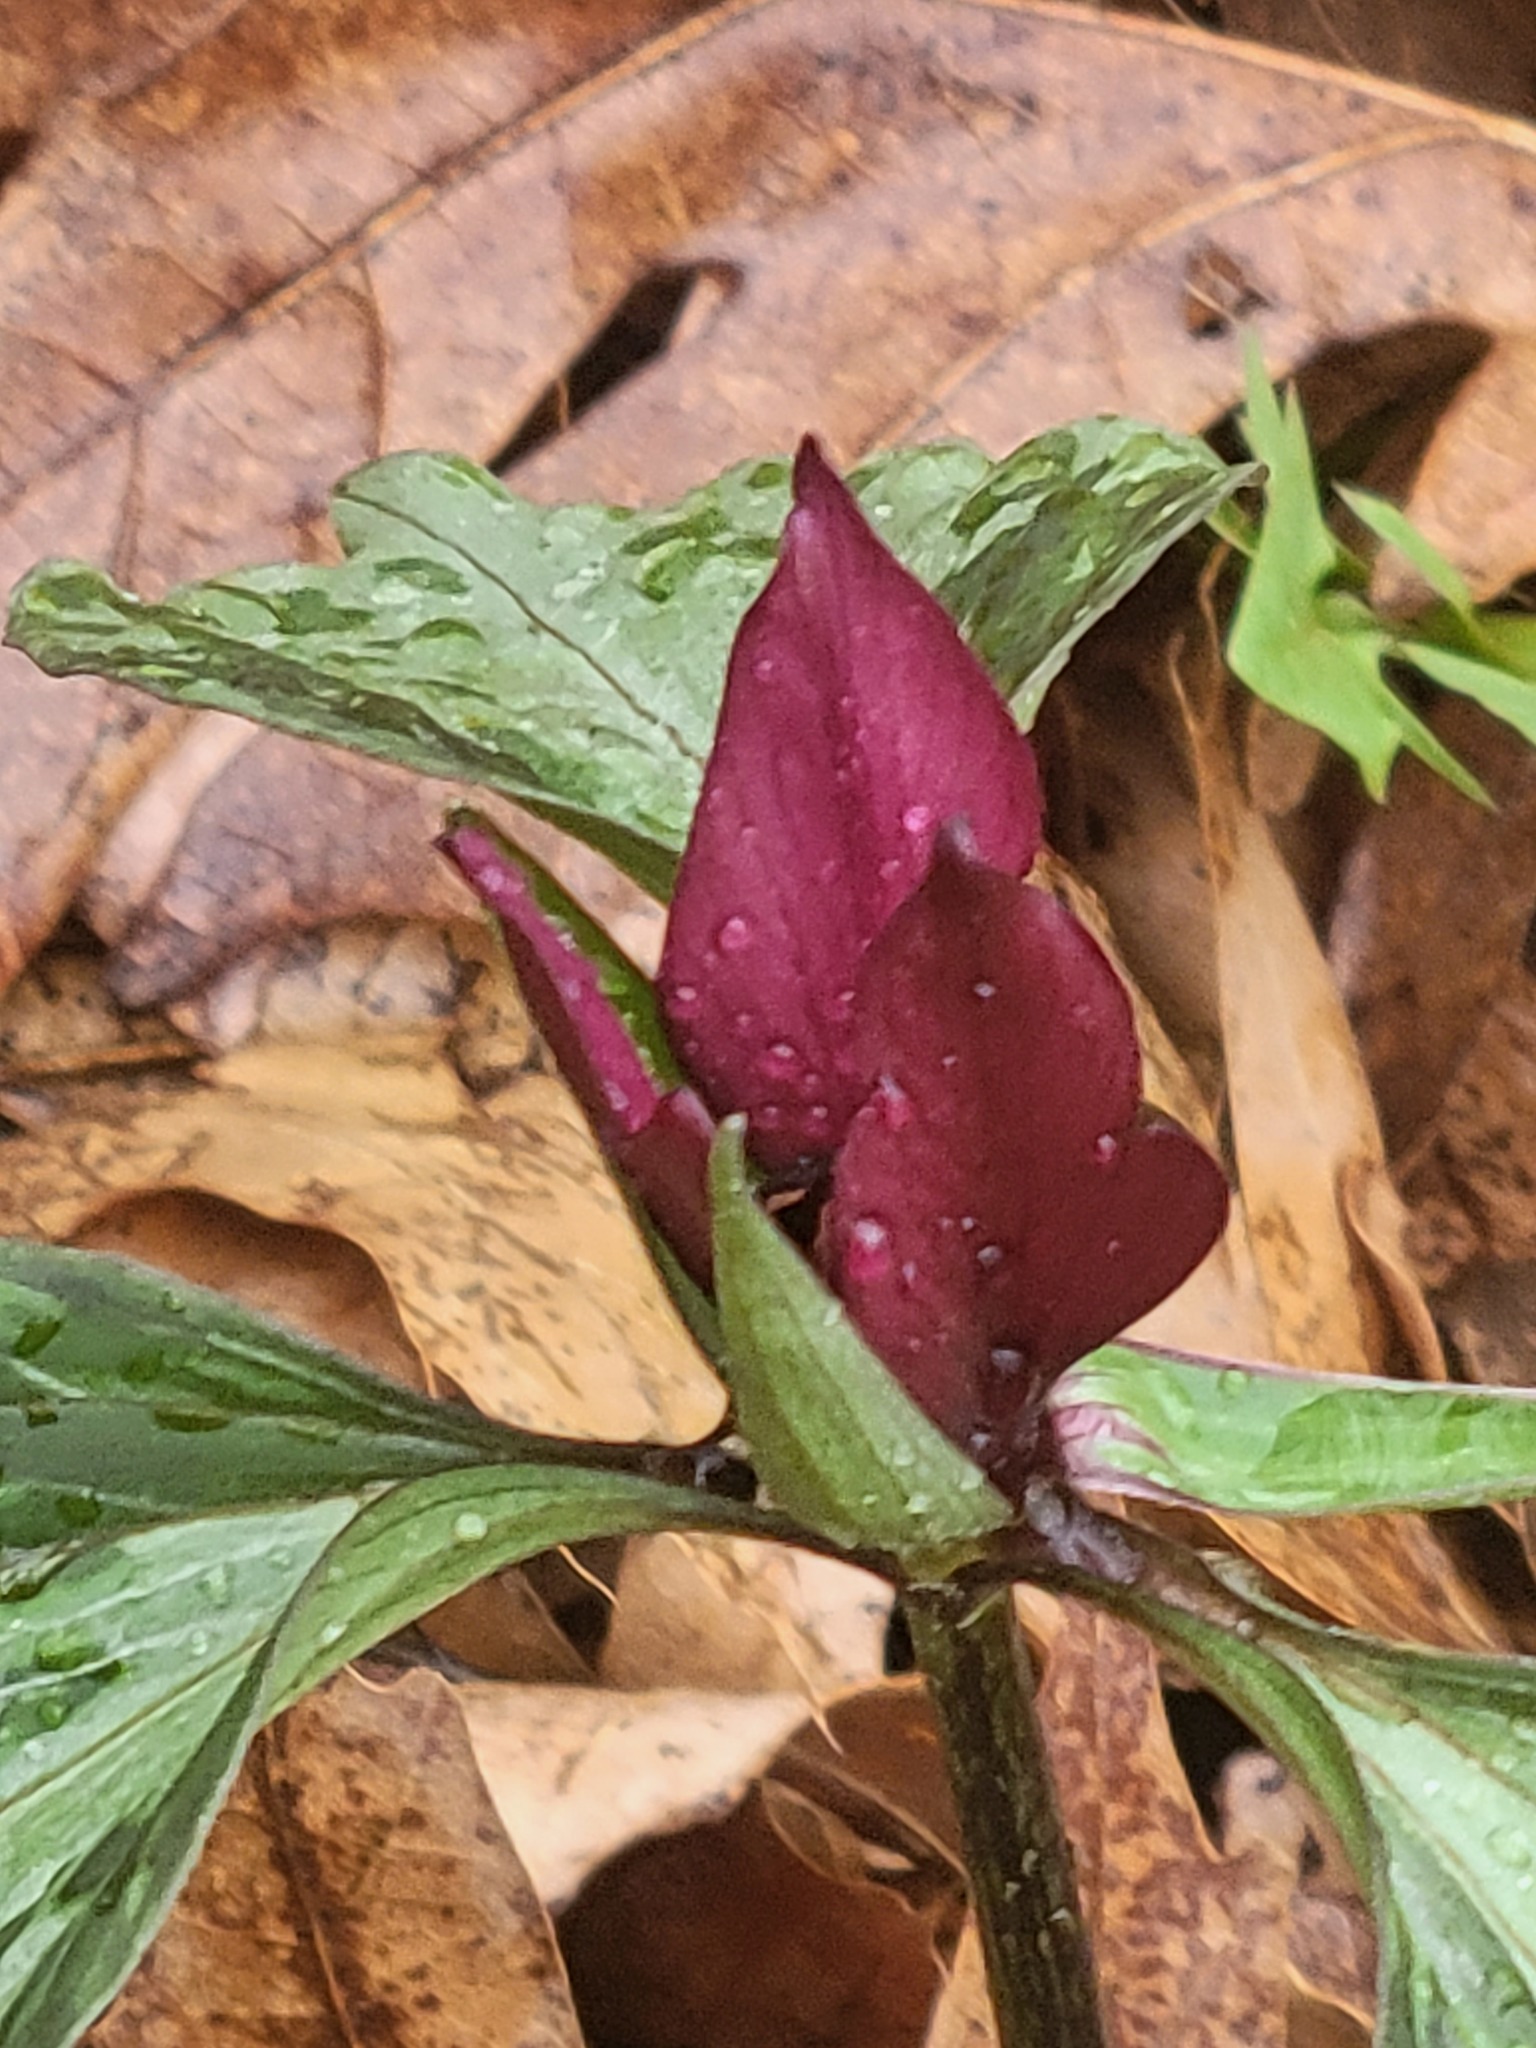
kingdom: Plantae
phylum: Tracheophyta
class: Liliopsida
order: Liliales
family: Melanthiaceae
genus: Trillium
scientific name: Trillium recurvatum
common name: Bloody butcher
